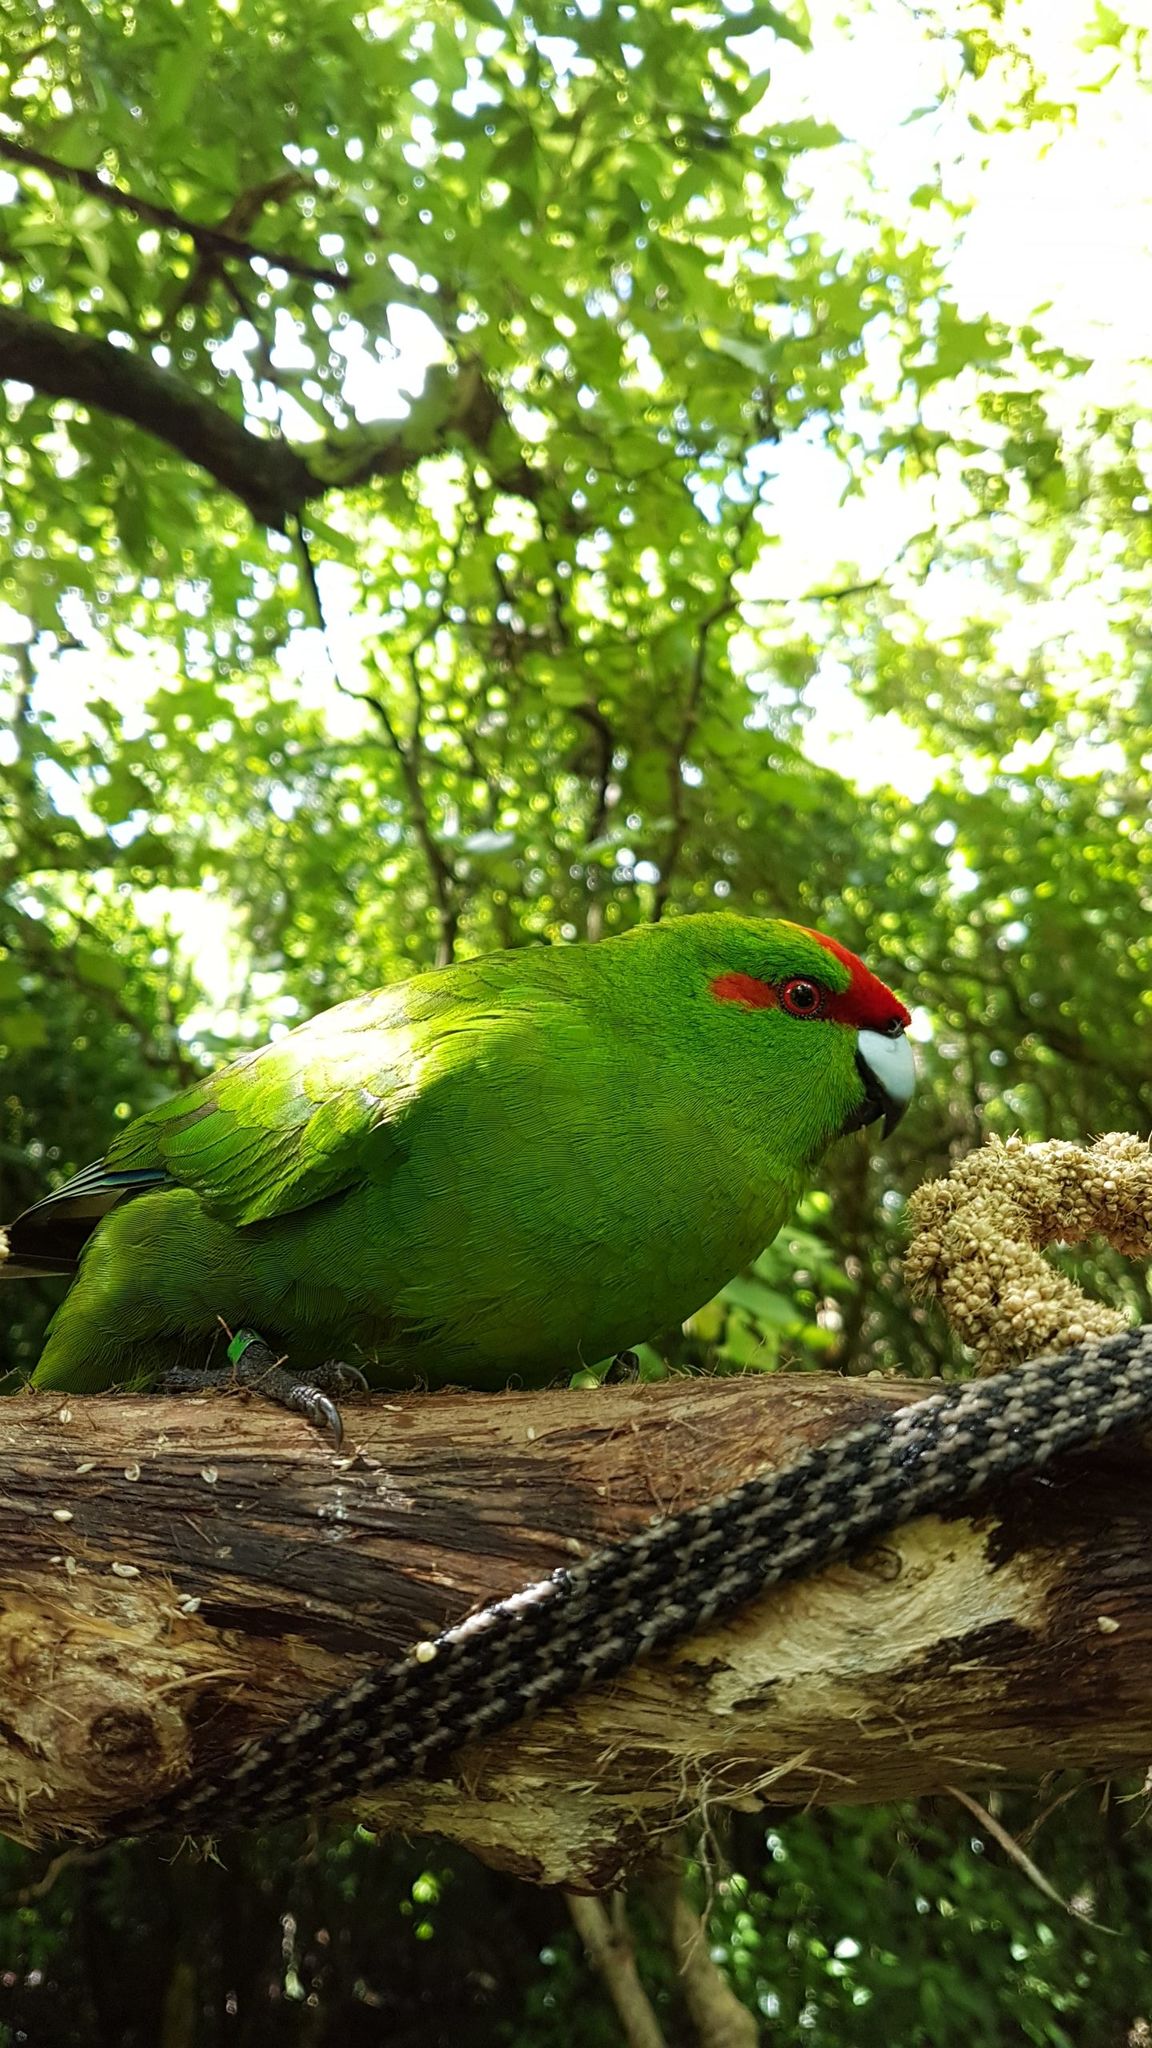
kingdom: Animalia
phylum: Chordata
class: Aves
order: Psittaciformes
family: Psittacidae
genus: Cyanoramphus
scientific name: Cyanoramphus novaezelandiae
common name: Red-fronted parakeet
